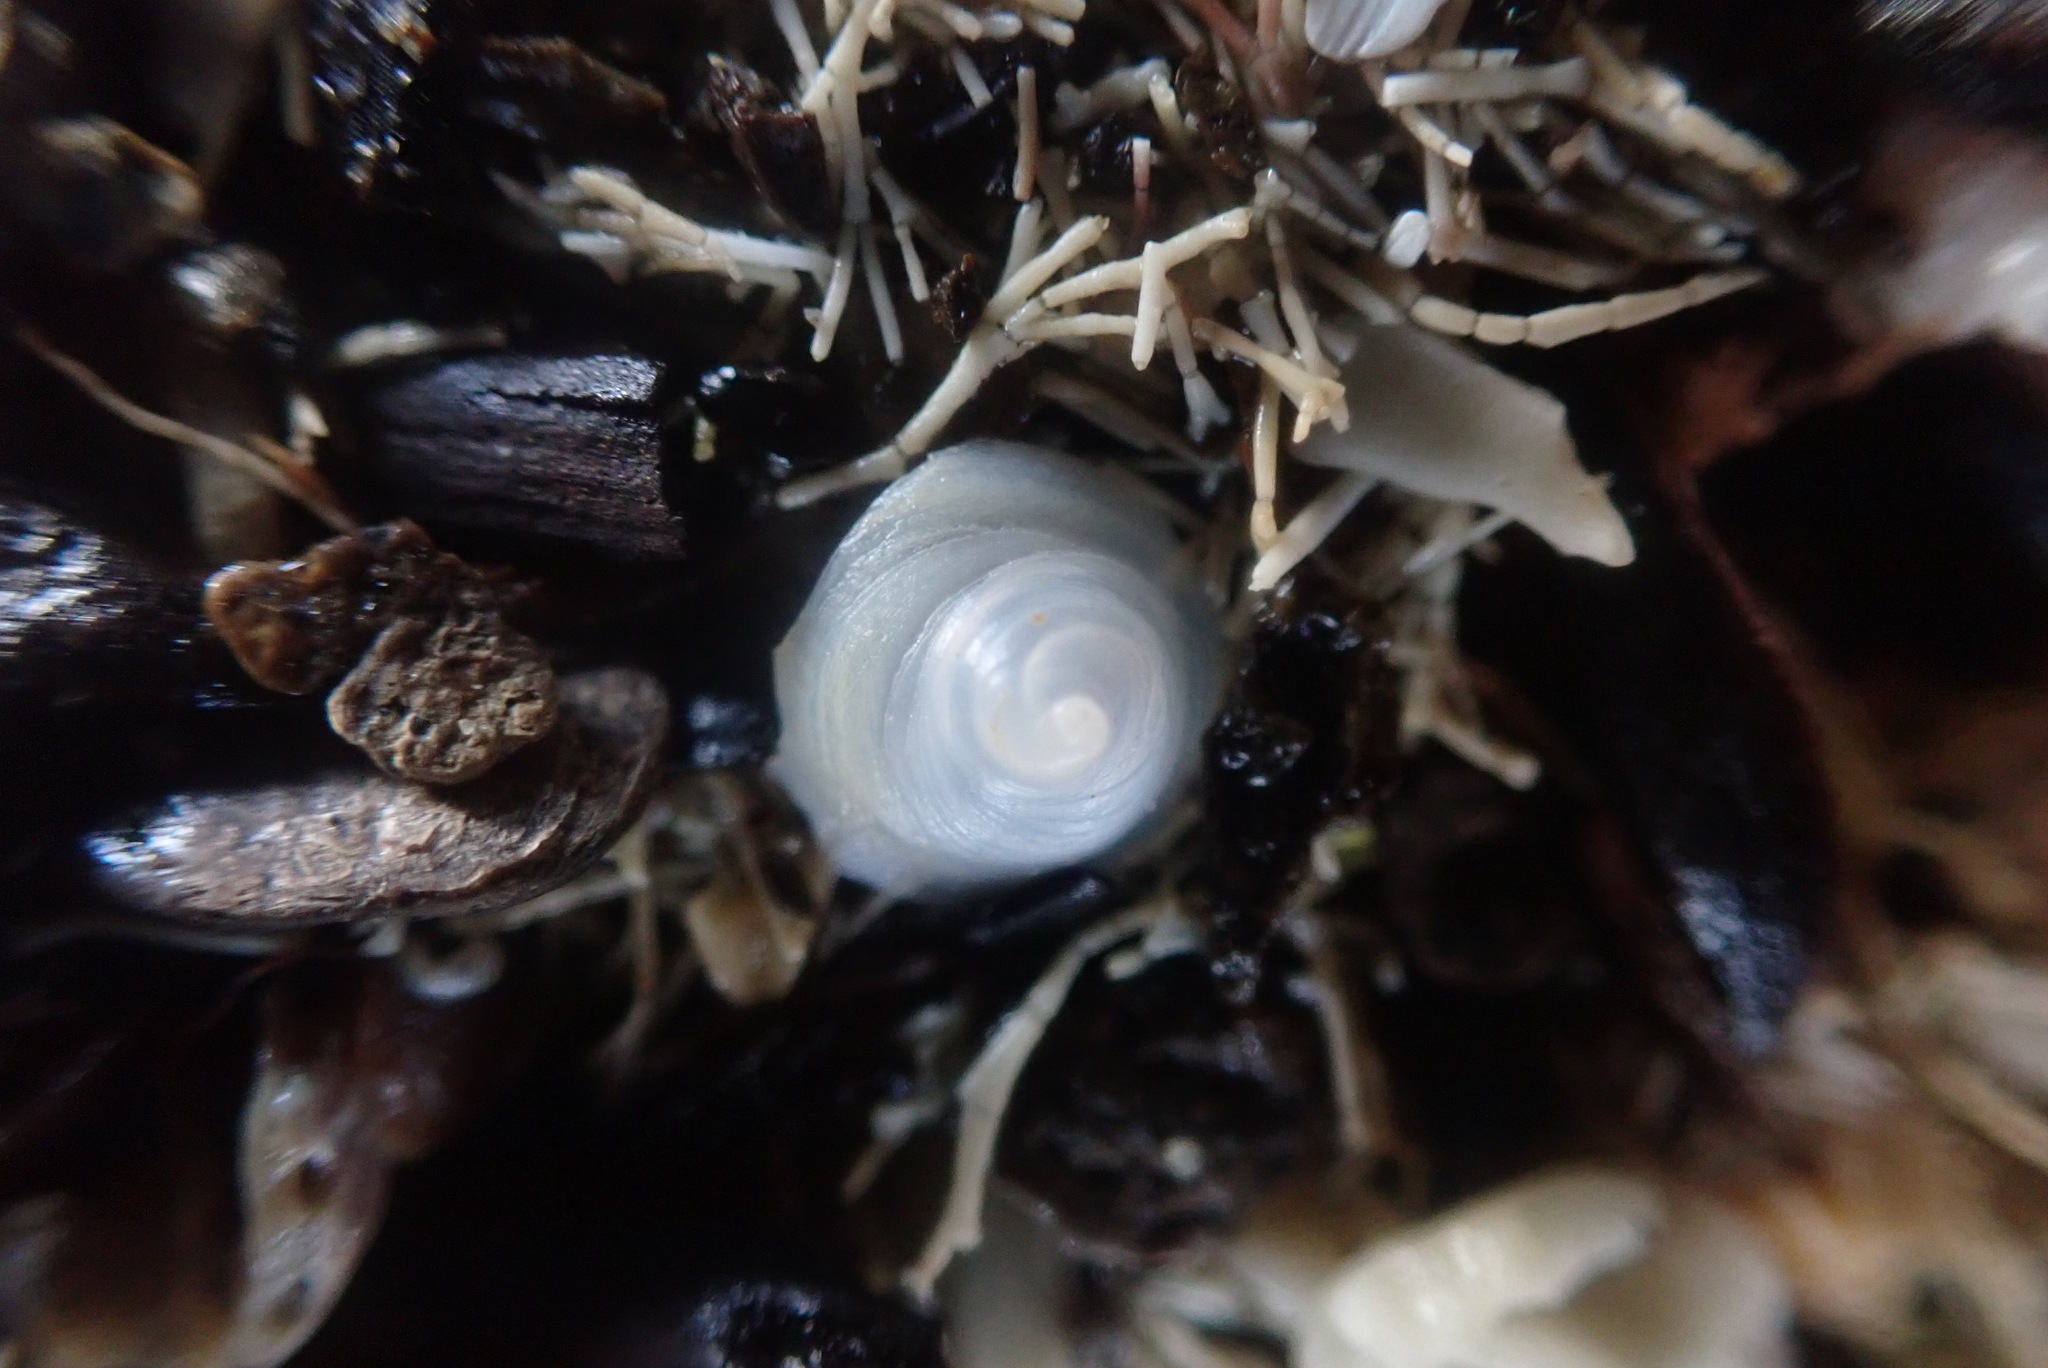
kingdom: Animalia
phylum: Mollusca
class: Gastropoda
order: Littorinimorpha
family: Calyptraeidae
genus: Sigapatella
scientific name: Sigapatella tenuis
